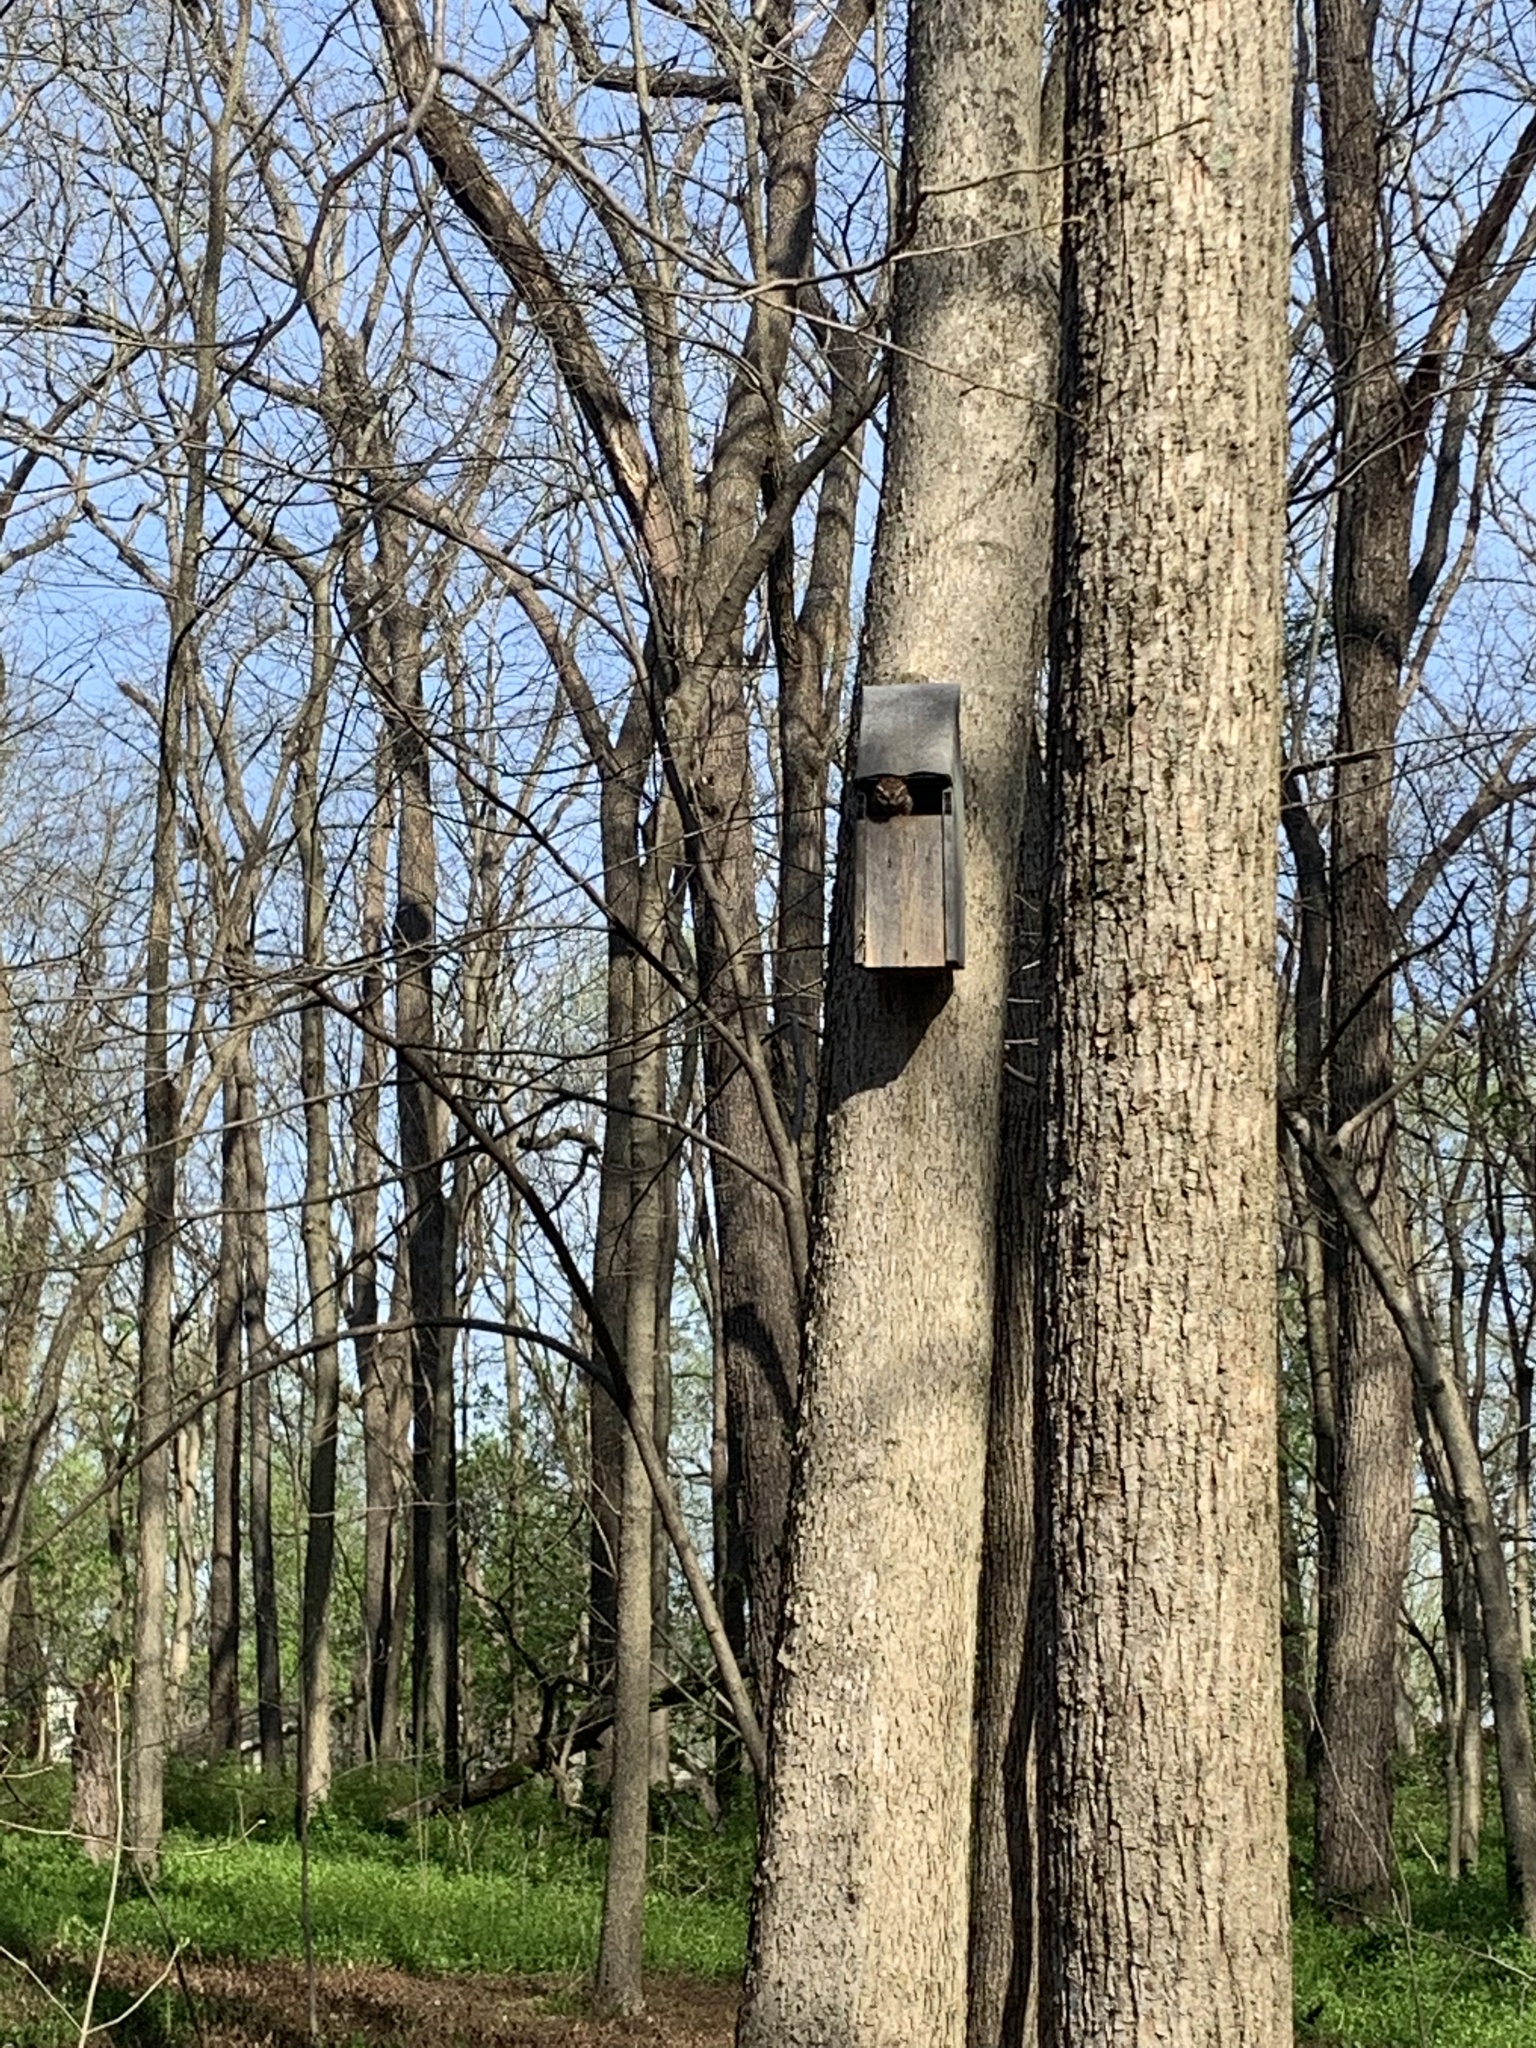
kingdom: Animalia
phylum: Chordata
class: Aves
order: Strigiformes
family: Strigidae
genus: Megascops
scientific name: Megascops asio
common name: Eastern screech-owl
